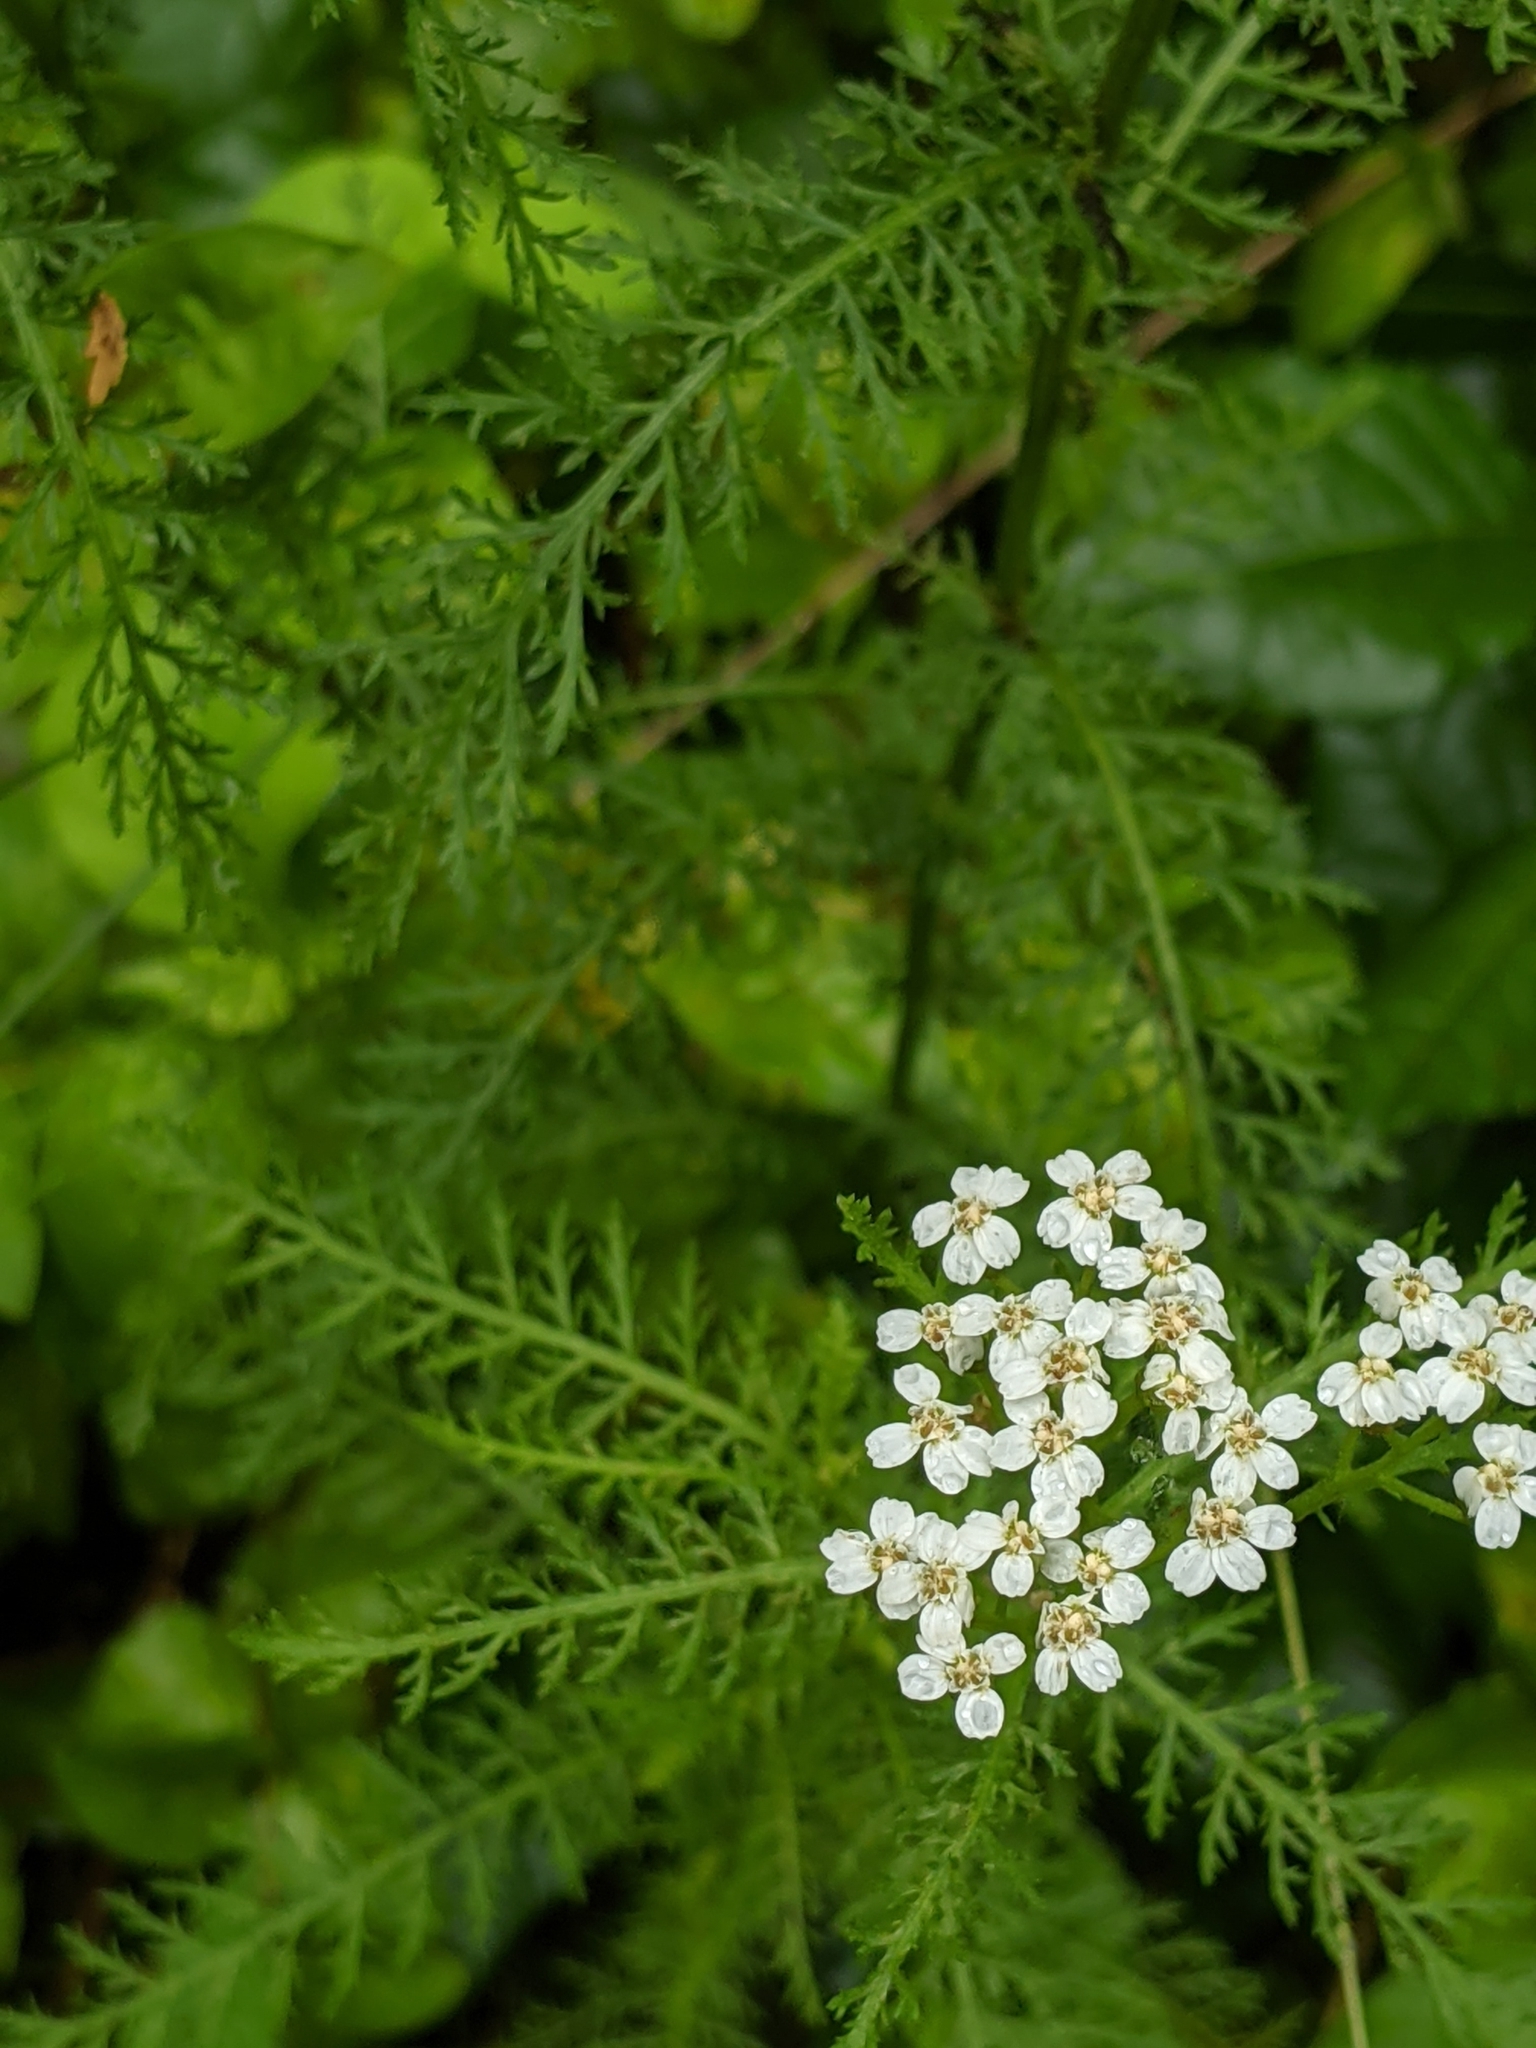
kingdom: Plantae
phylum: Tracheophyta
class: Magnoliopsida
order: Asterales
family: Asteraceae
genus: Achillea
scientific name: Achillea millefolium
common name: Yarrow
